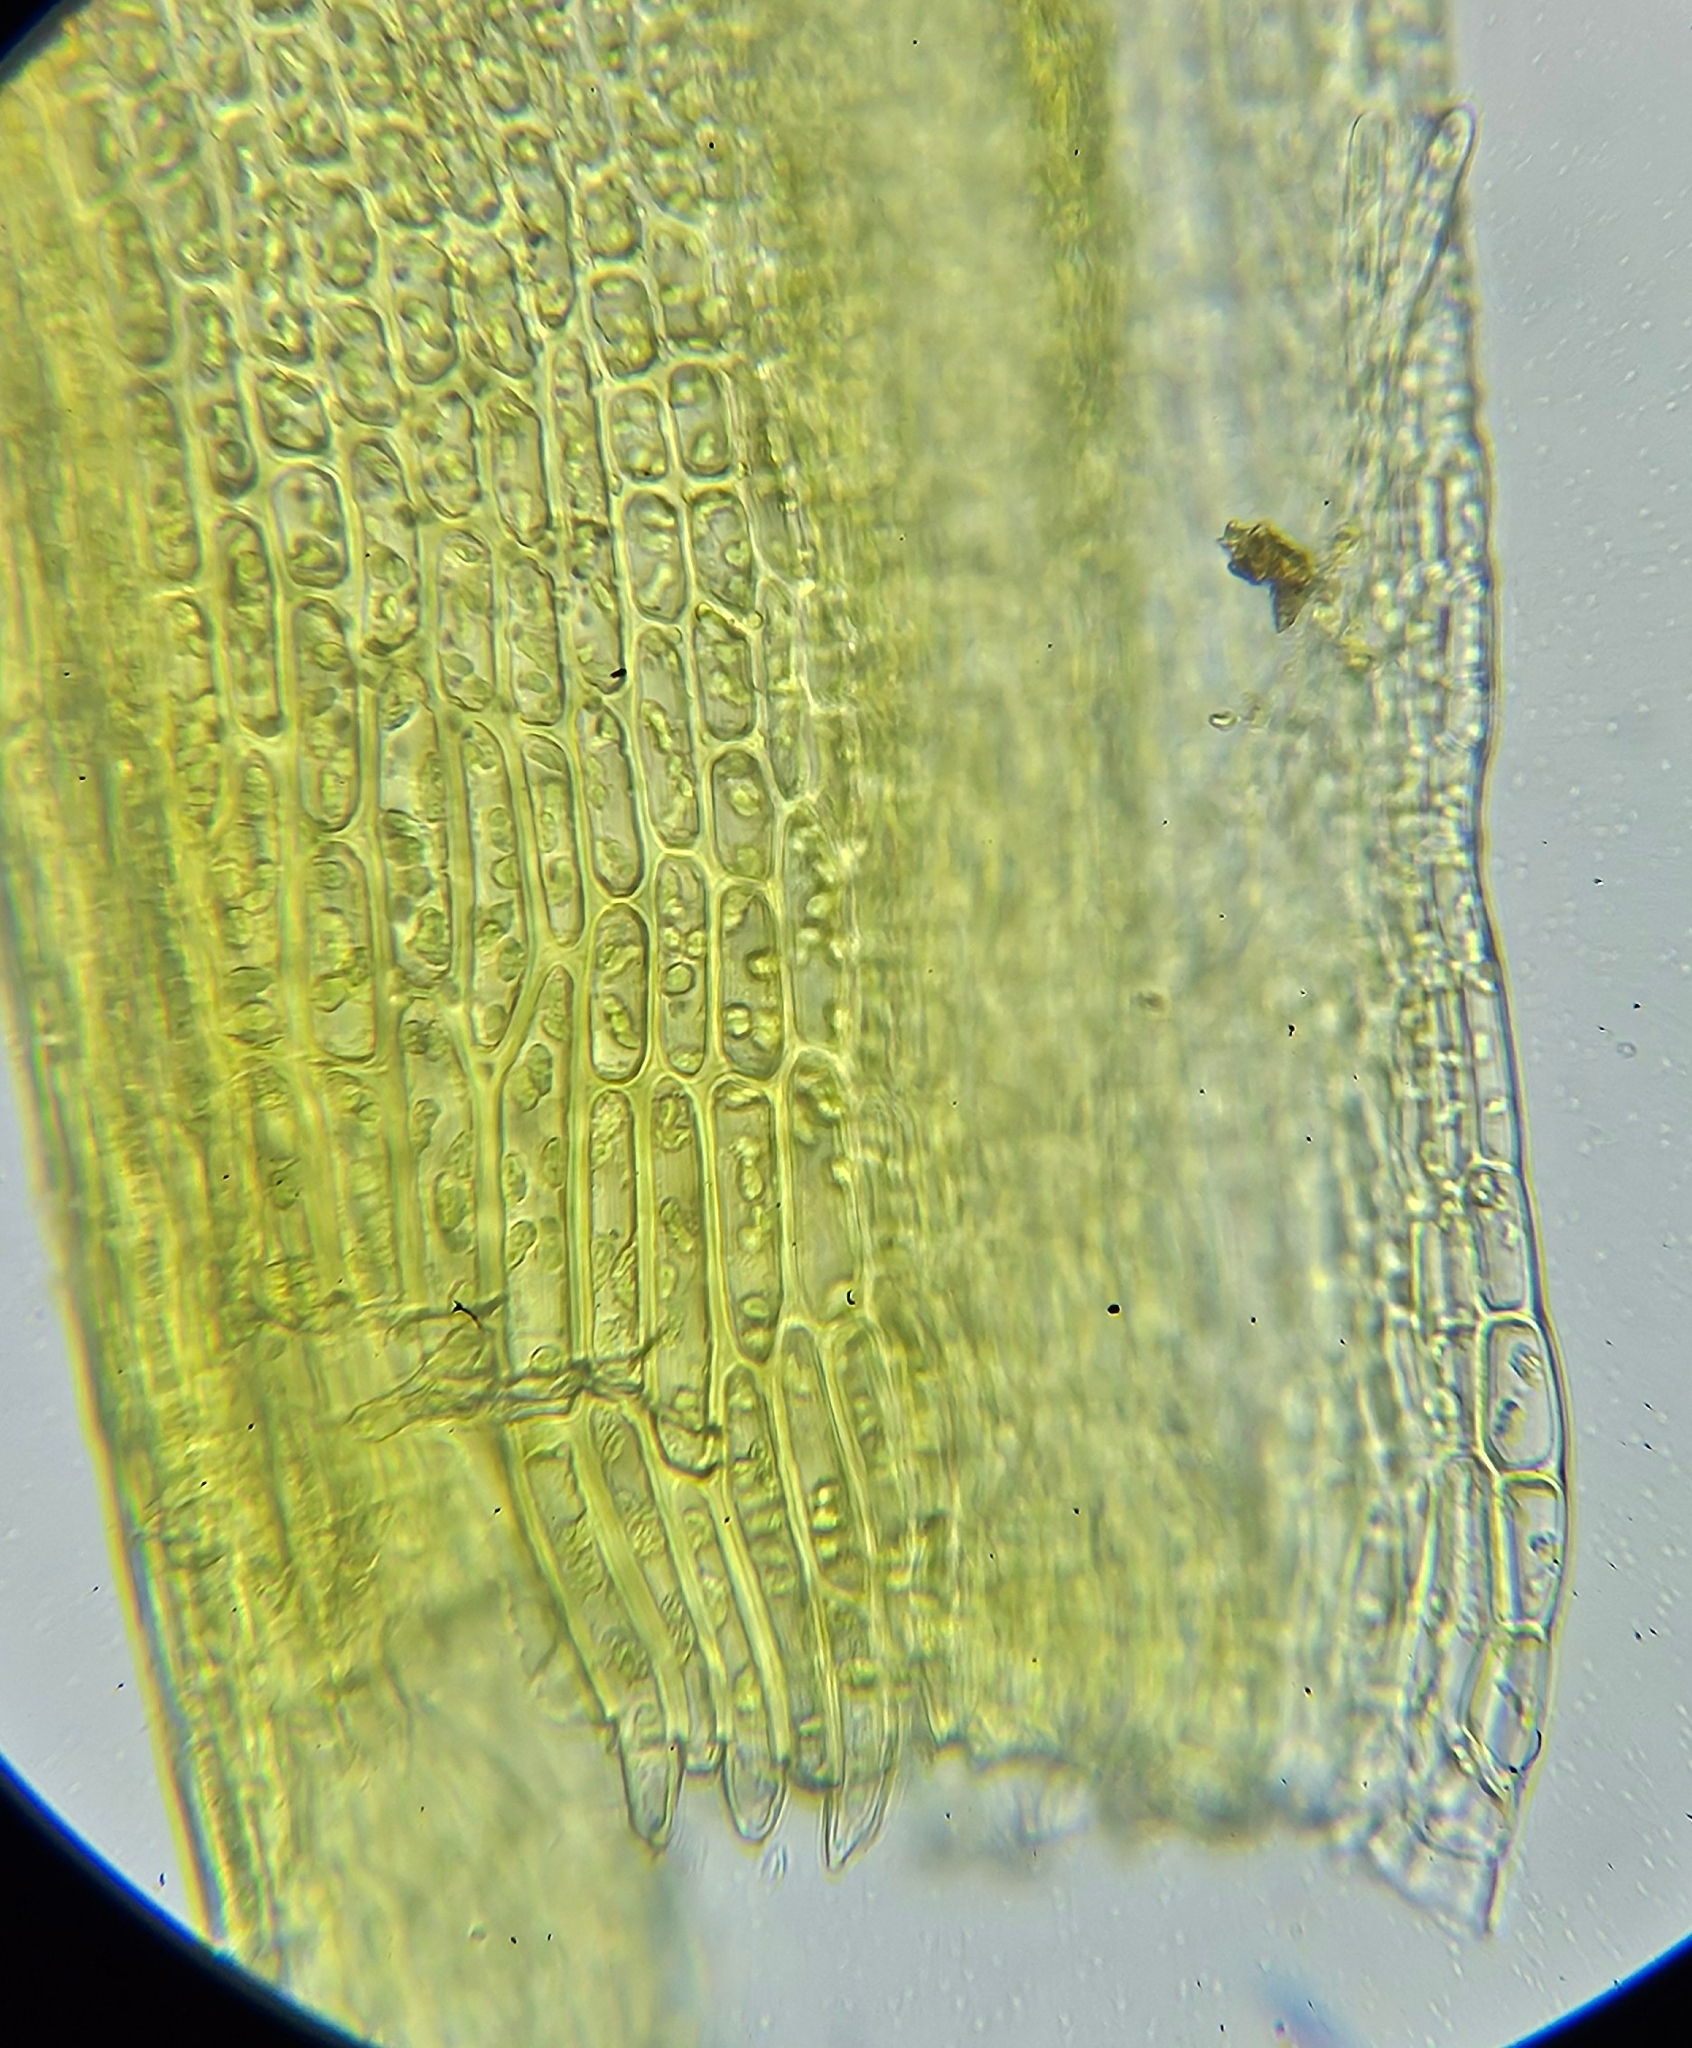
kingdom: Plantae
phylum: Bryophyta
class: Bryopsida
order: Pottiales
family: Pottiaceae
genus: Streblotrichum
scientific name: Streblotrichum commutatum
